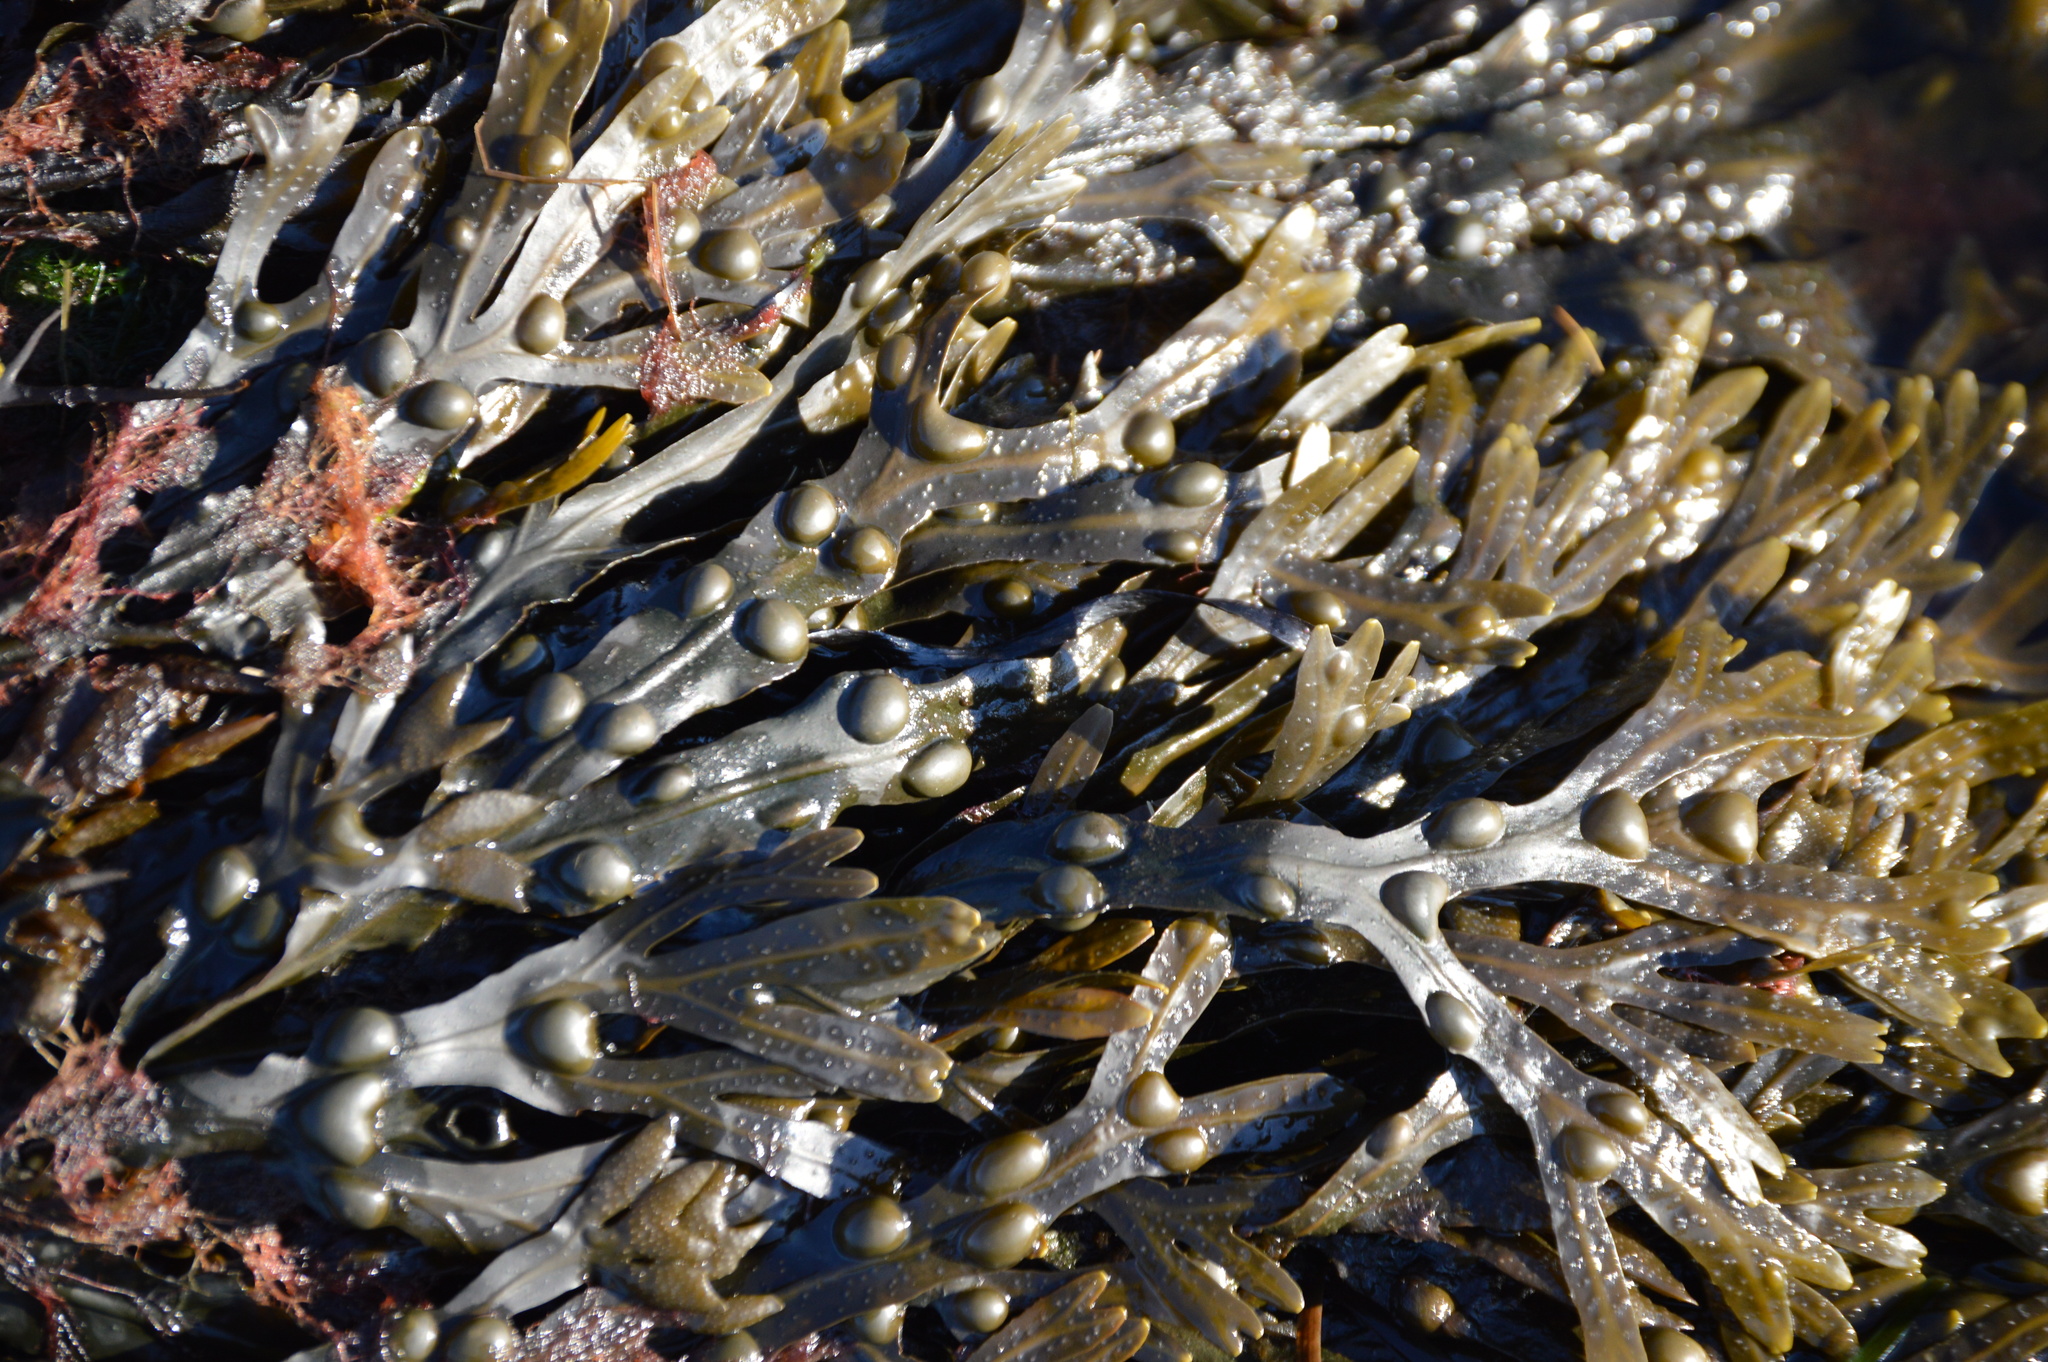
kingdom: Chromista
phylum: Ochrophyta
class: Phaeophyceae
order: Fucales
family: Fucaceae
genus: Fucus
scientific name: Fucus vesiculosus
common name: Bladder wrack
